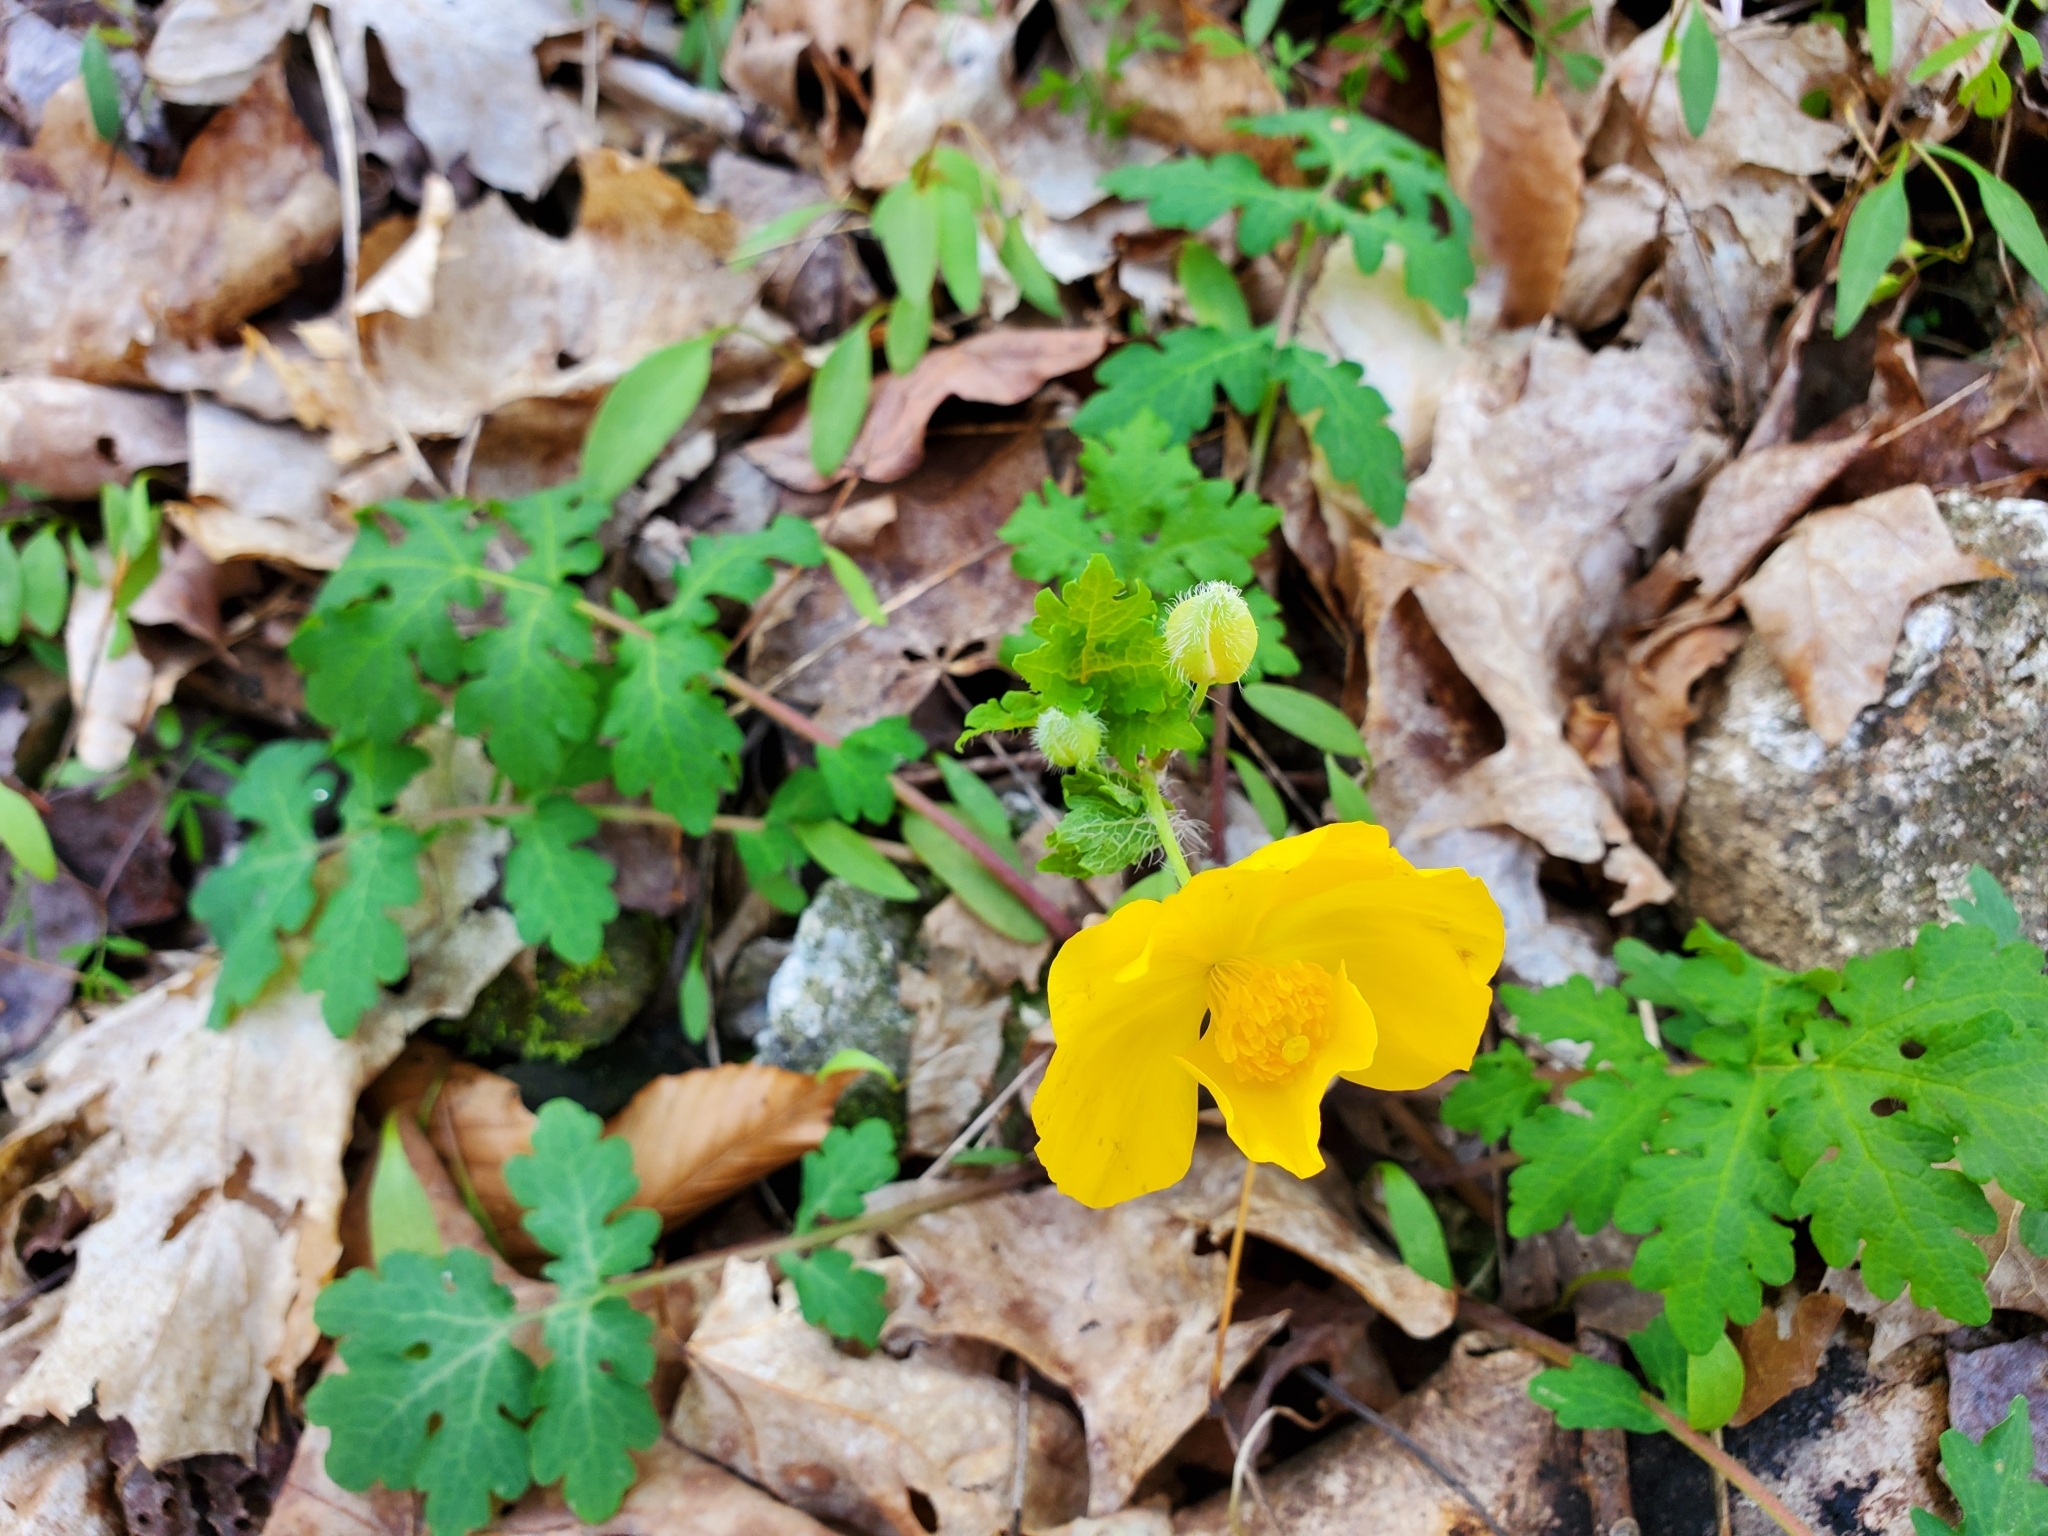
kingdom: Plantae
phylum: Tracheophyta
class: Magnoliopsida
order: Ranunculales
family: Papaveraceae
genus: Stylophorum
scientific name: Stylophorum diphyllum
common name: Celandine poppy
